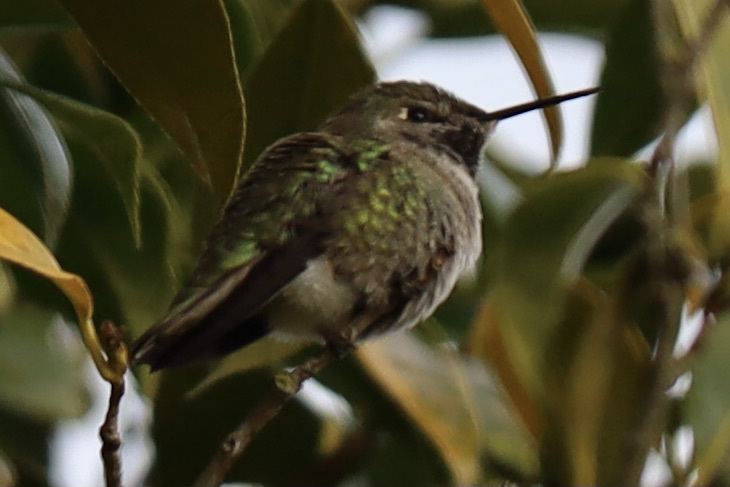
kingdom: Animalia
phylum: Chordata
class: Aves
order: Apodiformes
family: Trochilidae
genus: Calypte
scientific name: Calypte anna
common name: Anna's hummingbird
